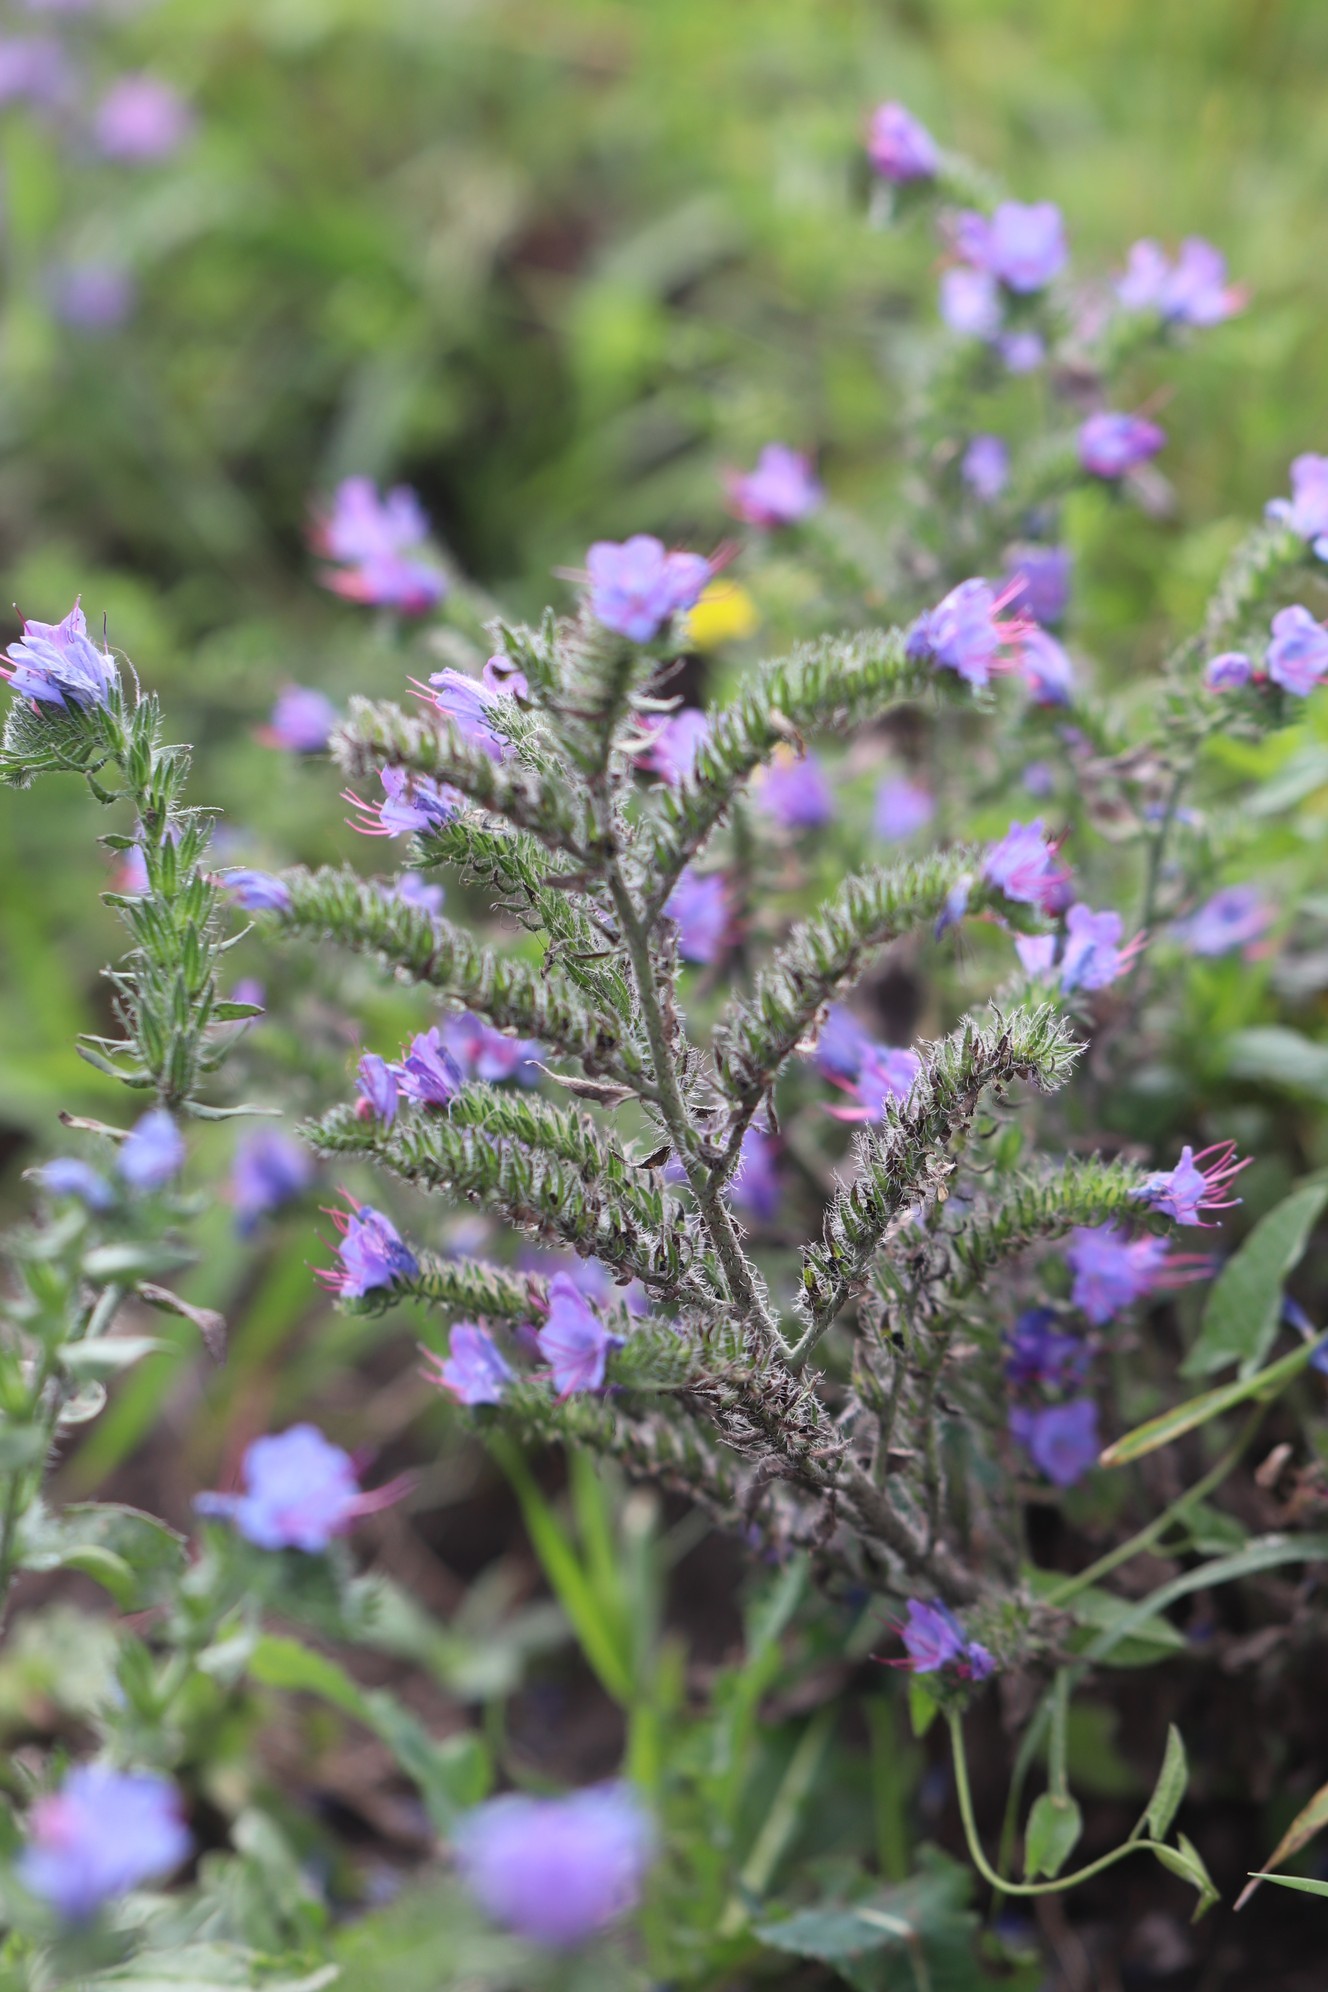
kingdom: Plantae
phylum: Tracheophyta
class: Magnoliopsida
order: Boraginales
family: Boraginaceae
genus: Echium
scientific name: Echium vulgare
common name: Common viper's bugloss
